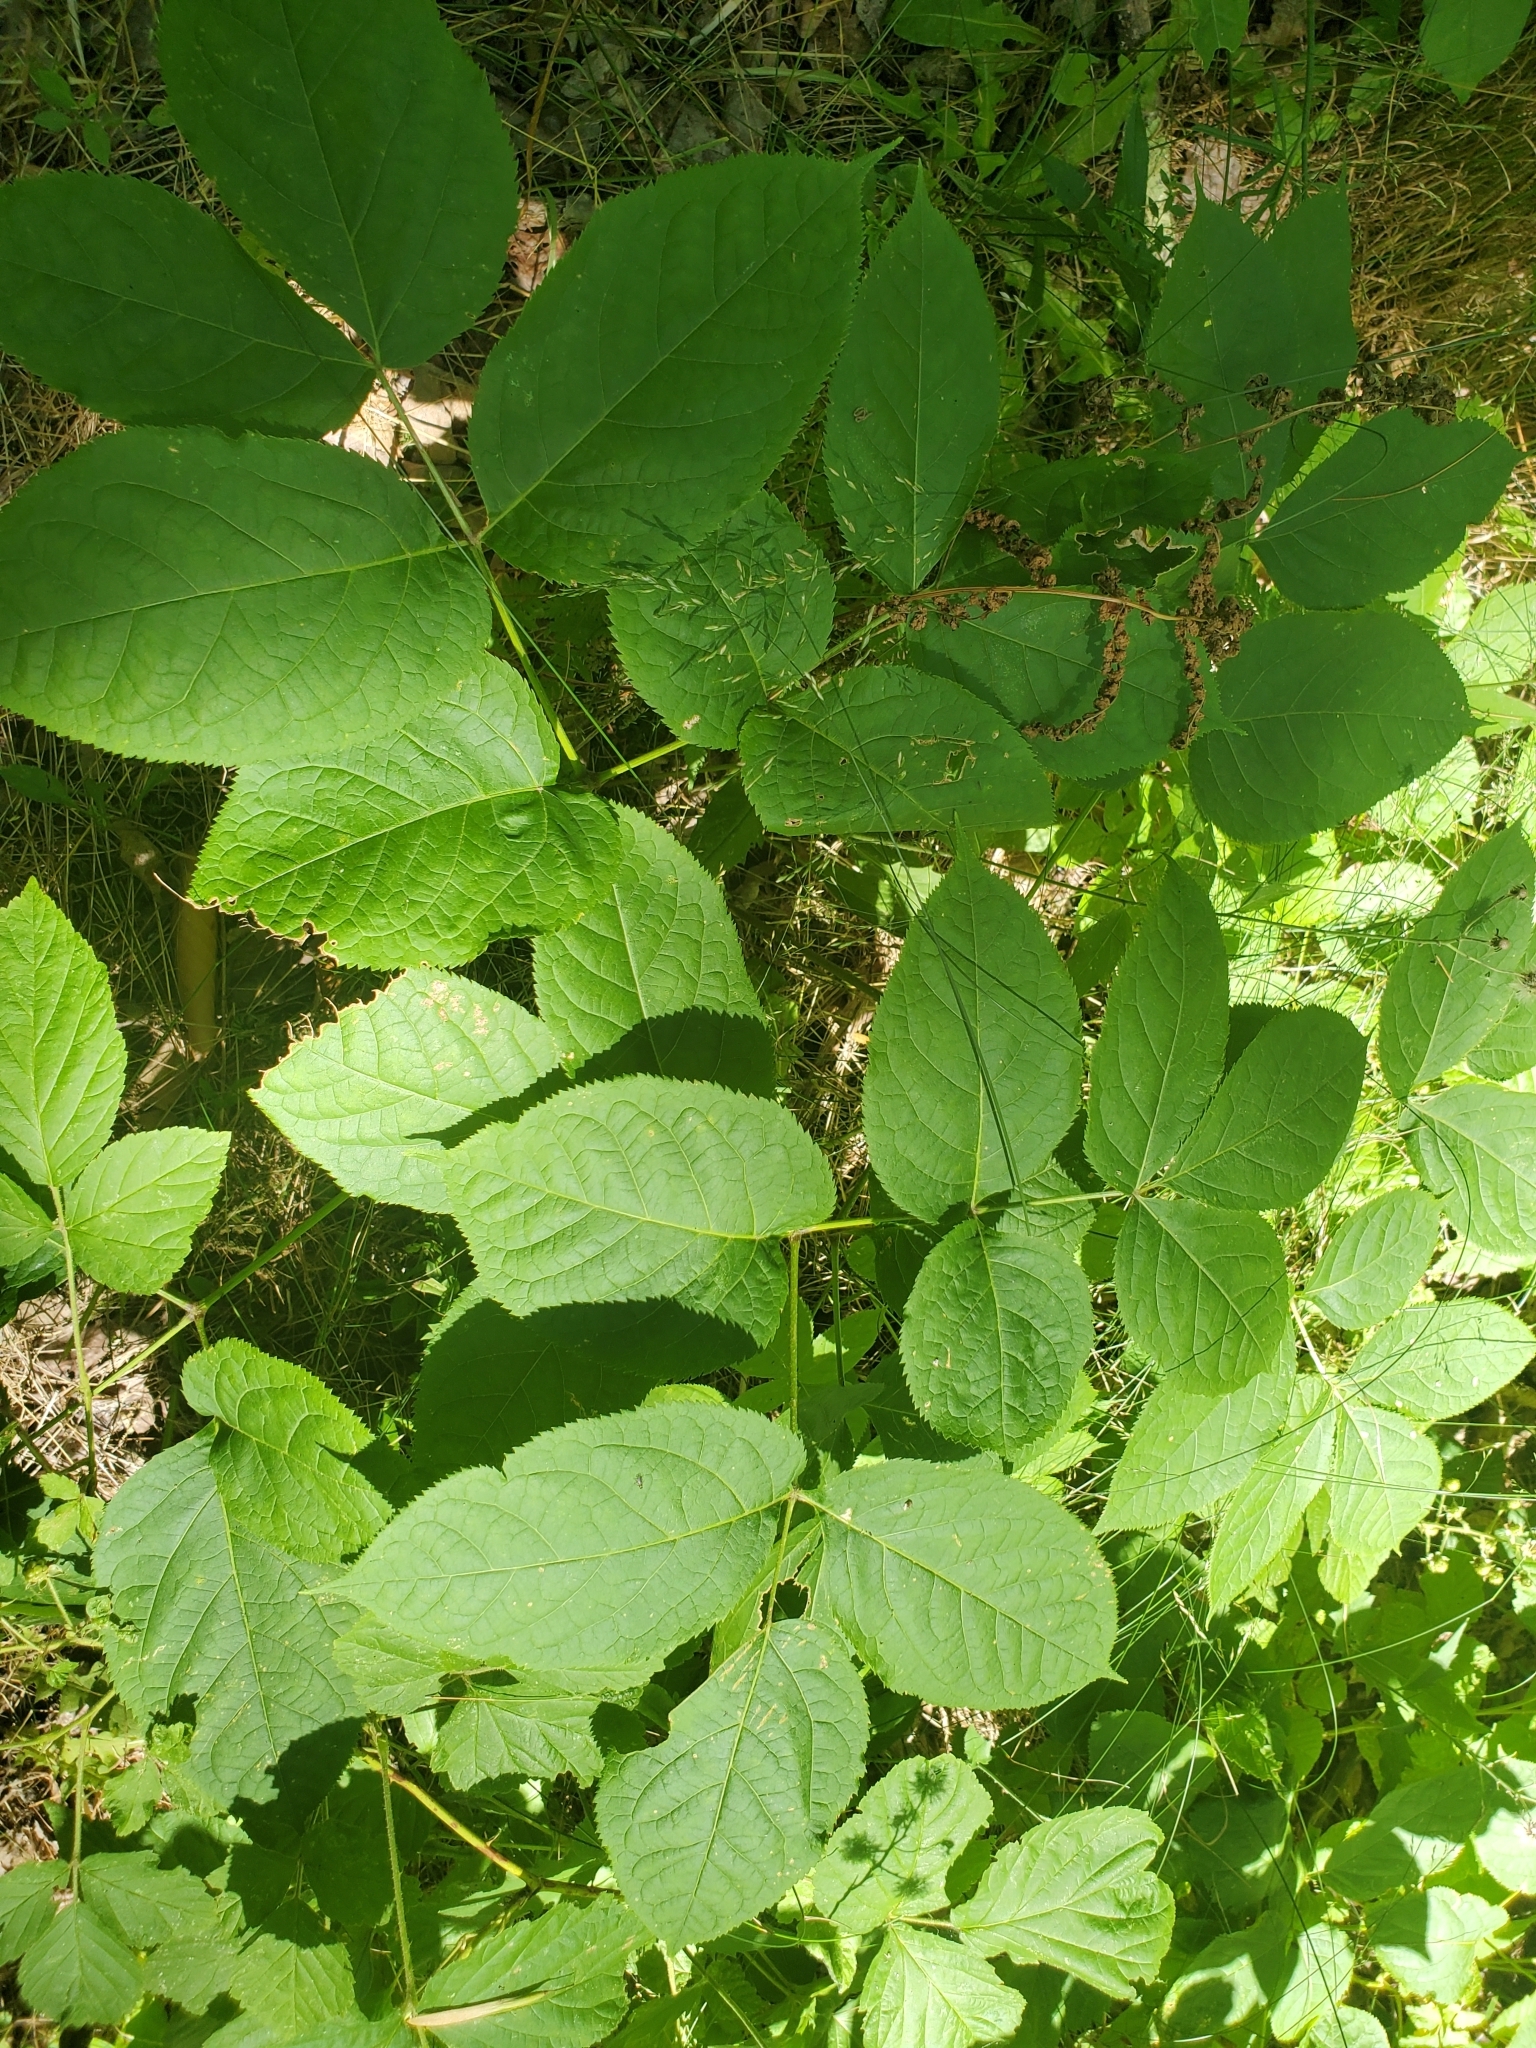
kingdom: Plantae
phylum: Tracheophyta
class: Magnoliopsida
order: Apiales
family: Araliaceae
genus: Aralia
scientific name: Aralia nudicaulis
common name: Wild sarsaparilla
